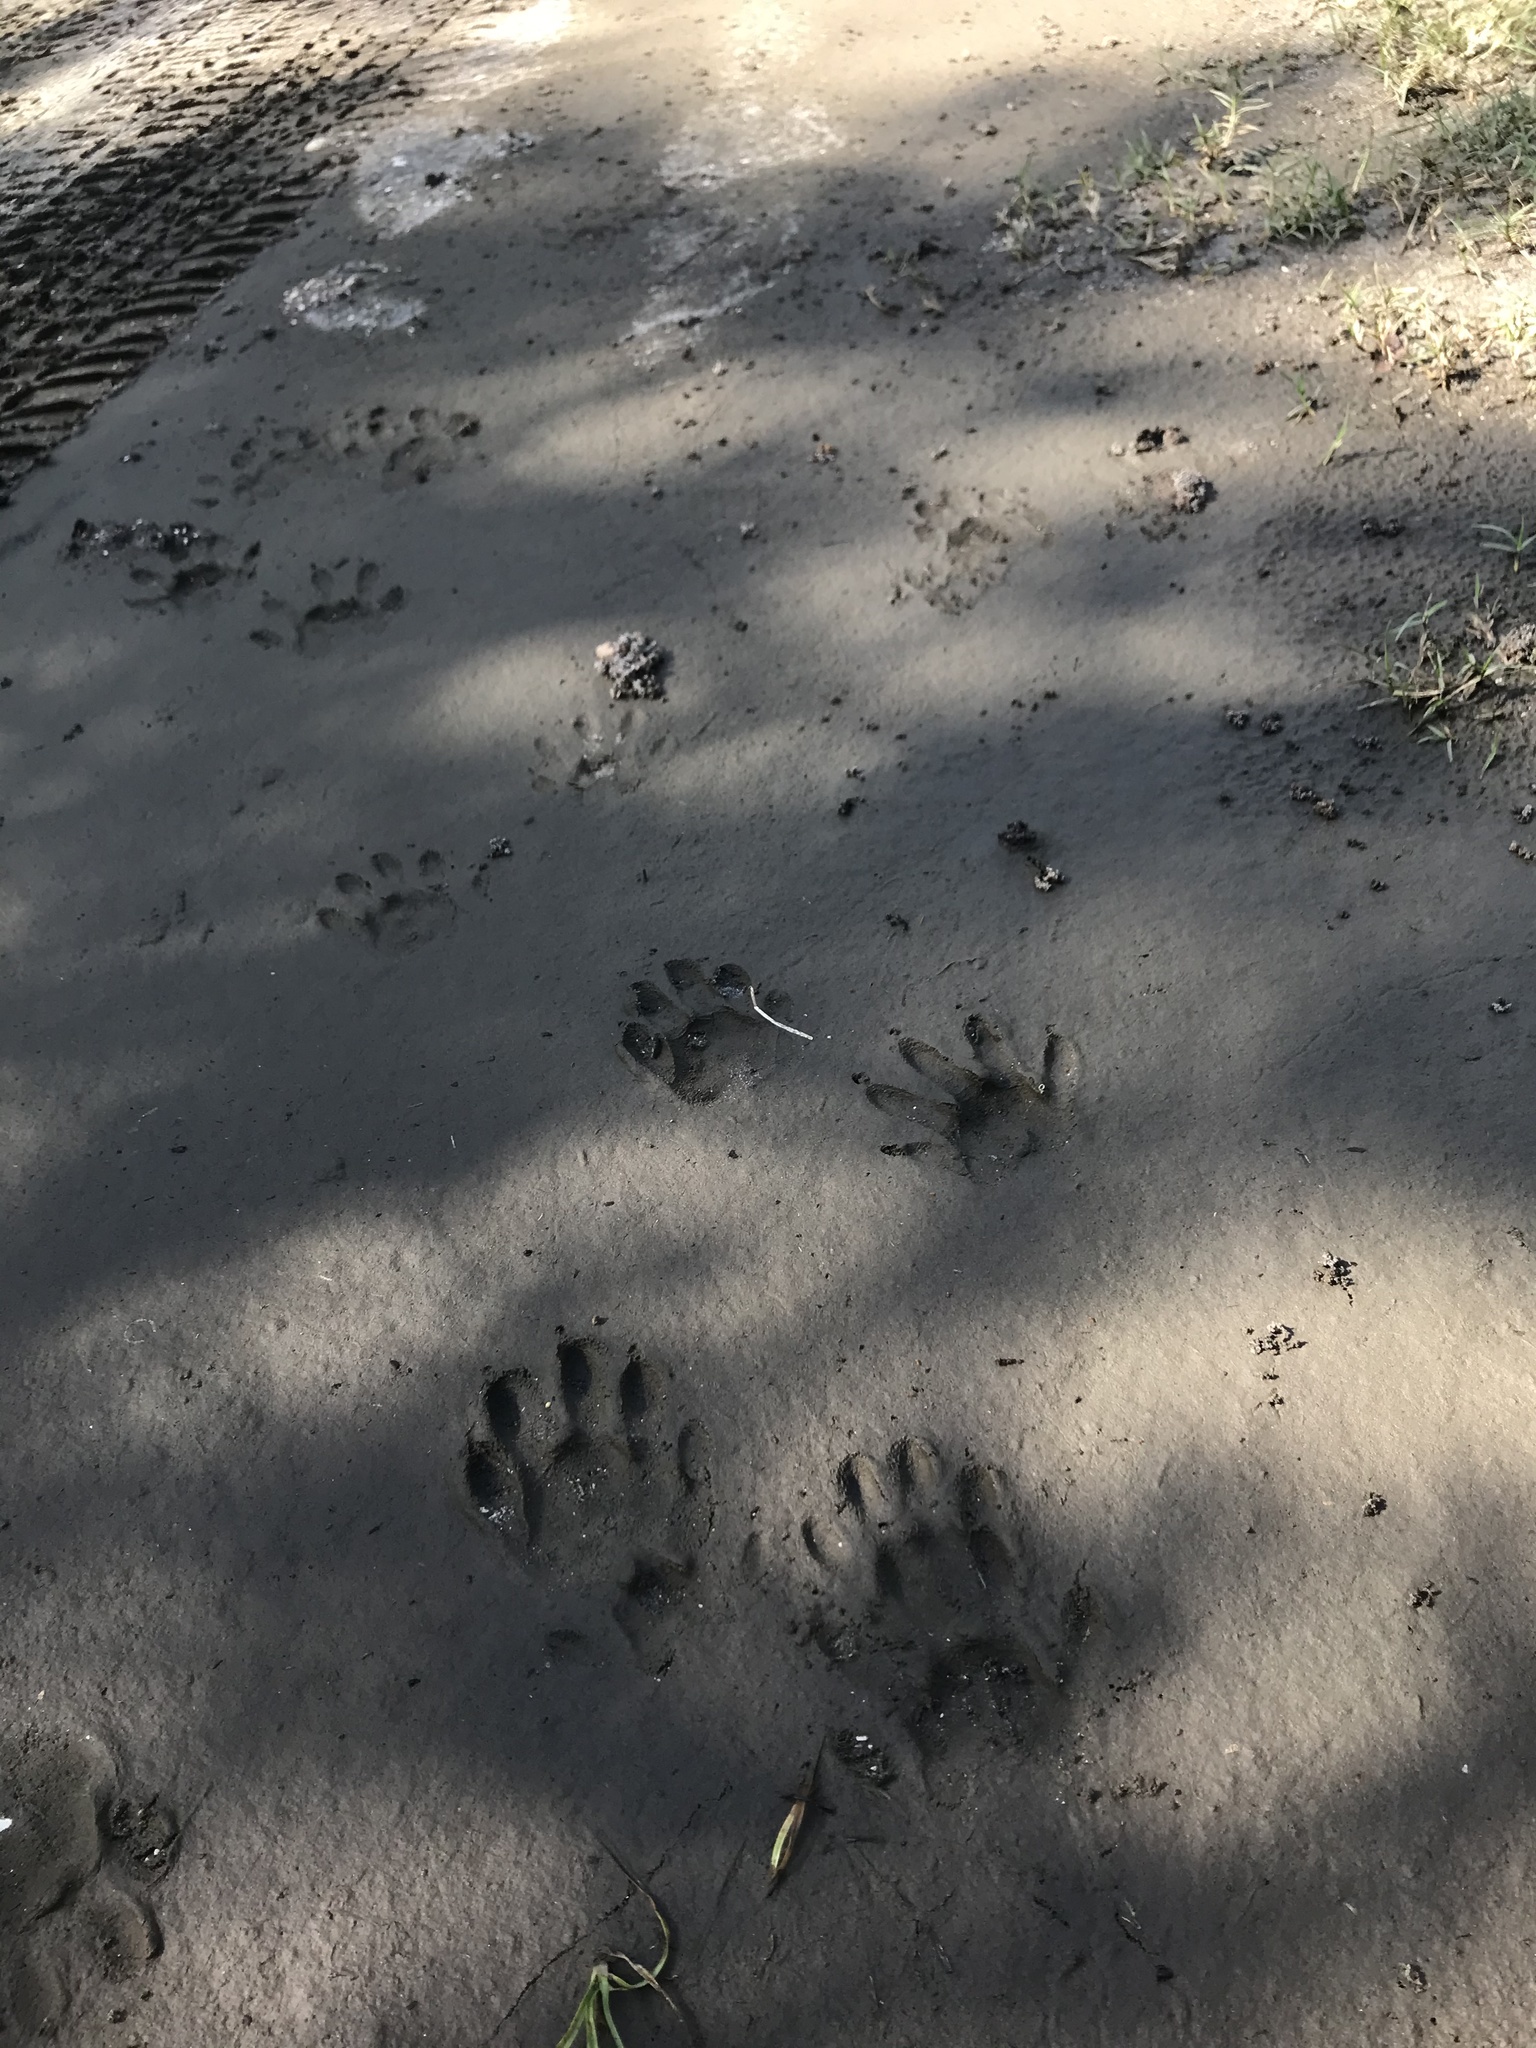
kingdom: Animalia
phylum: Chordata
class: Mammalia
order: Carnivora
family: Procyonidae
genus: Procyon
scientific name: Procyon lotor
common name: Raccoon
